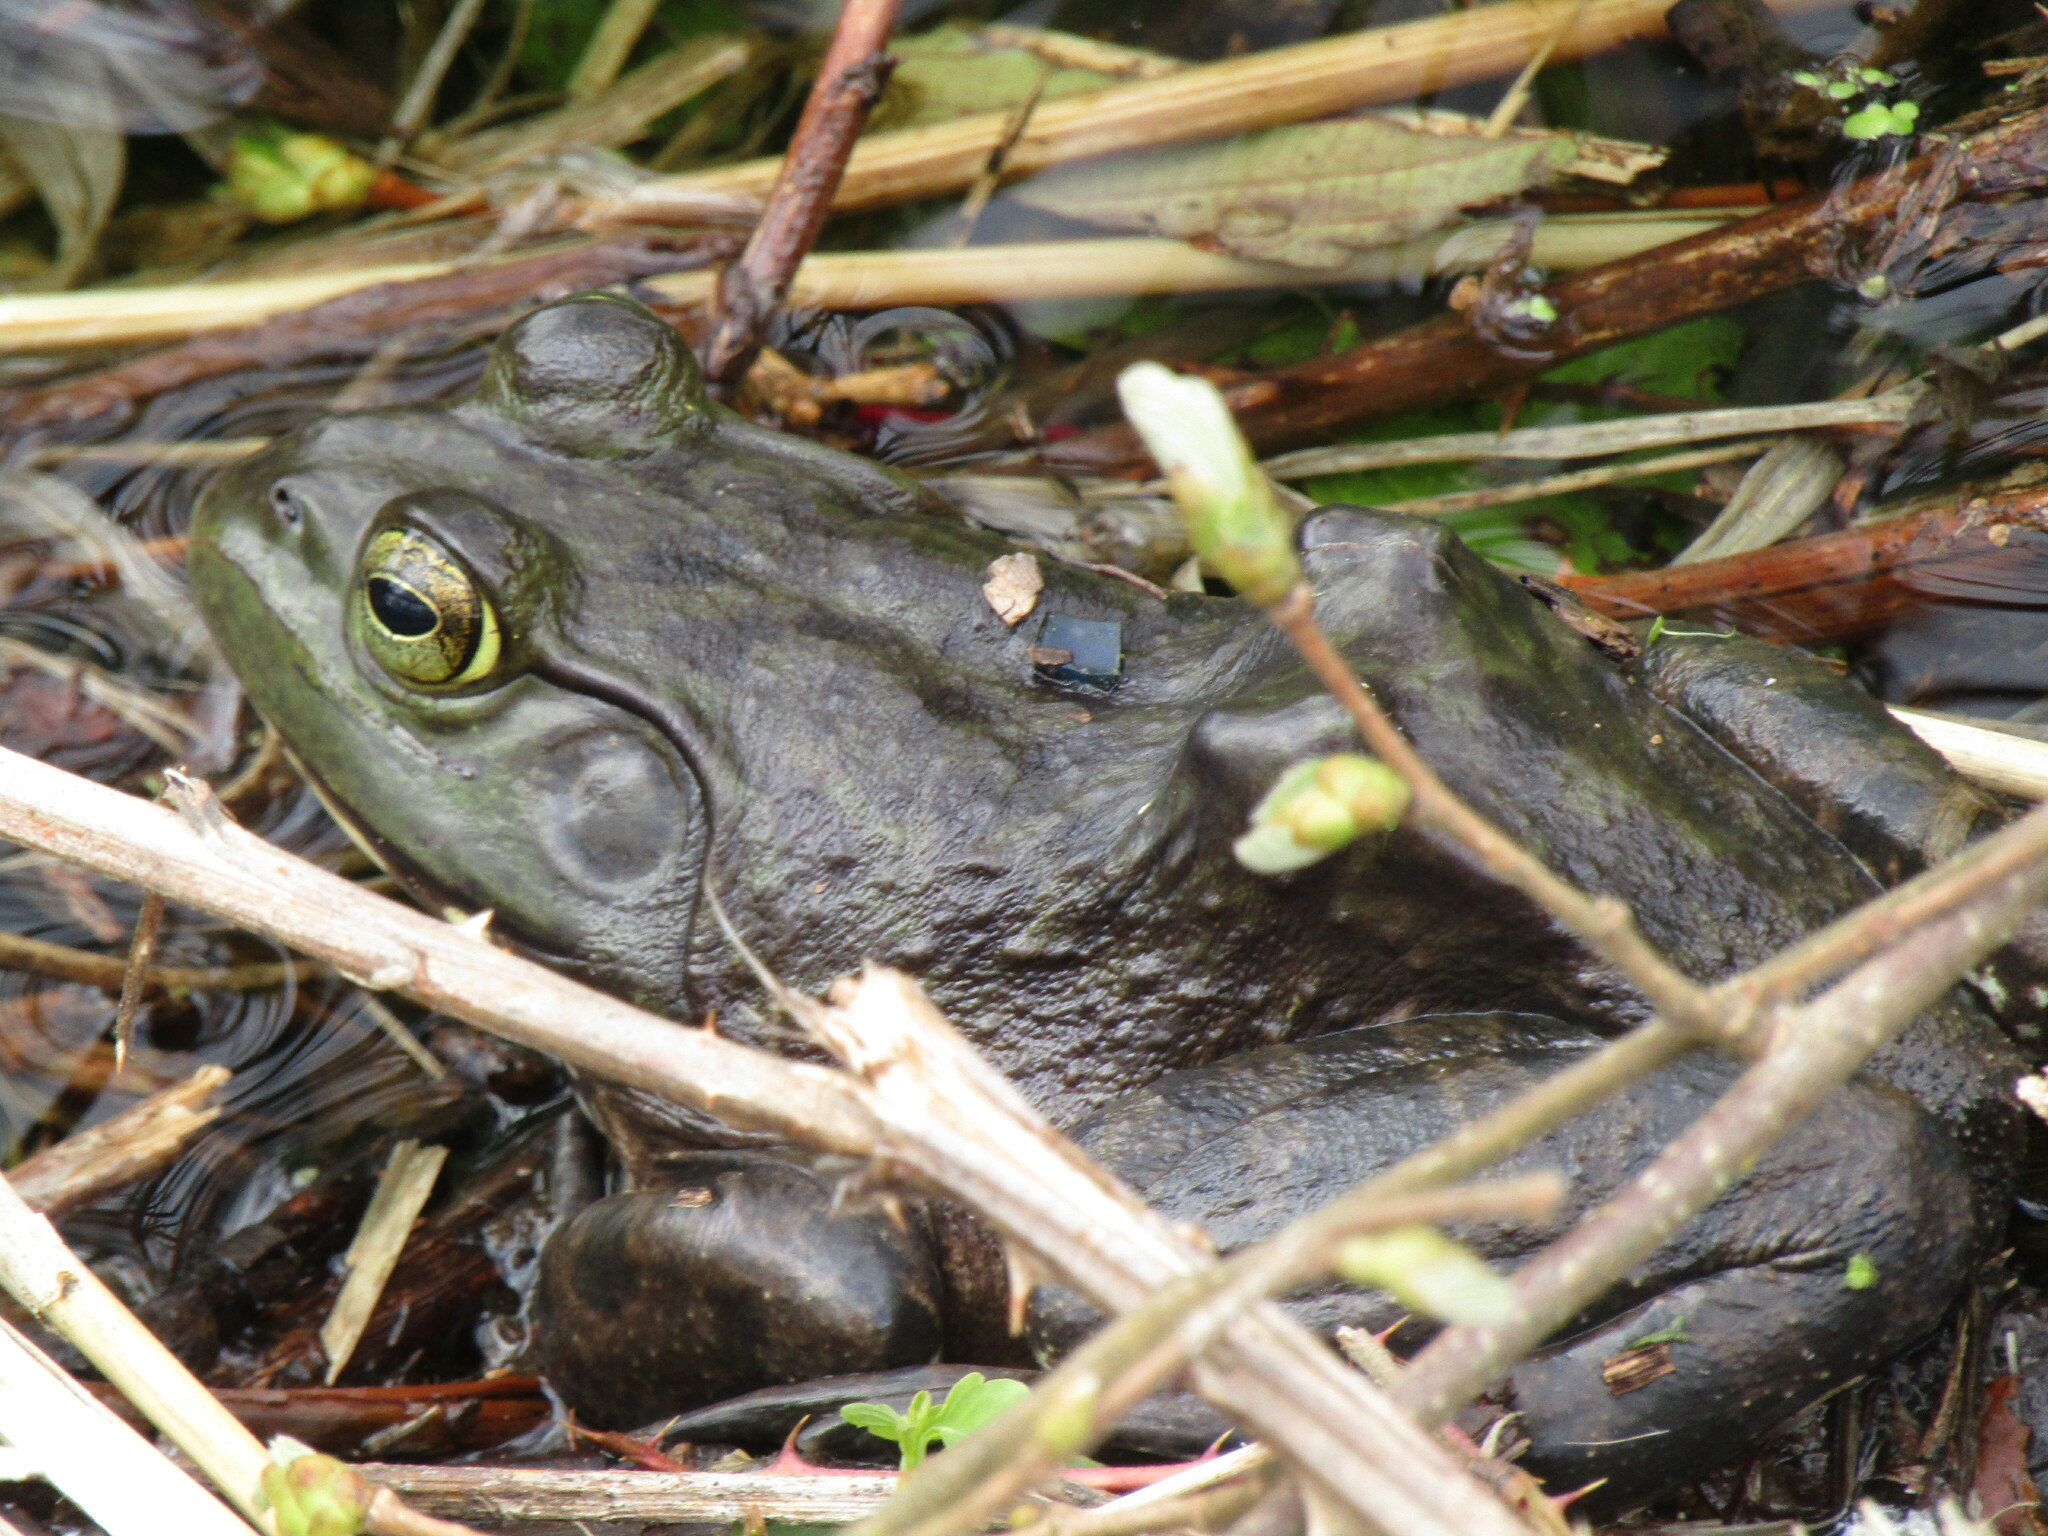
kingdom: Animalia
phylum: Chordata
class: Amphibia
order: Anura
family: Ranidae
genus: Lithobates
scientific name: Lithobates catesbeianus
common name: American bullfrog
